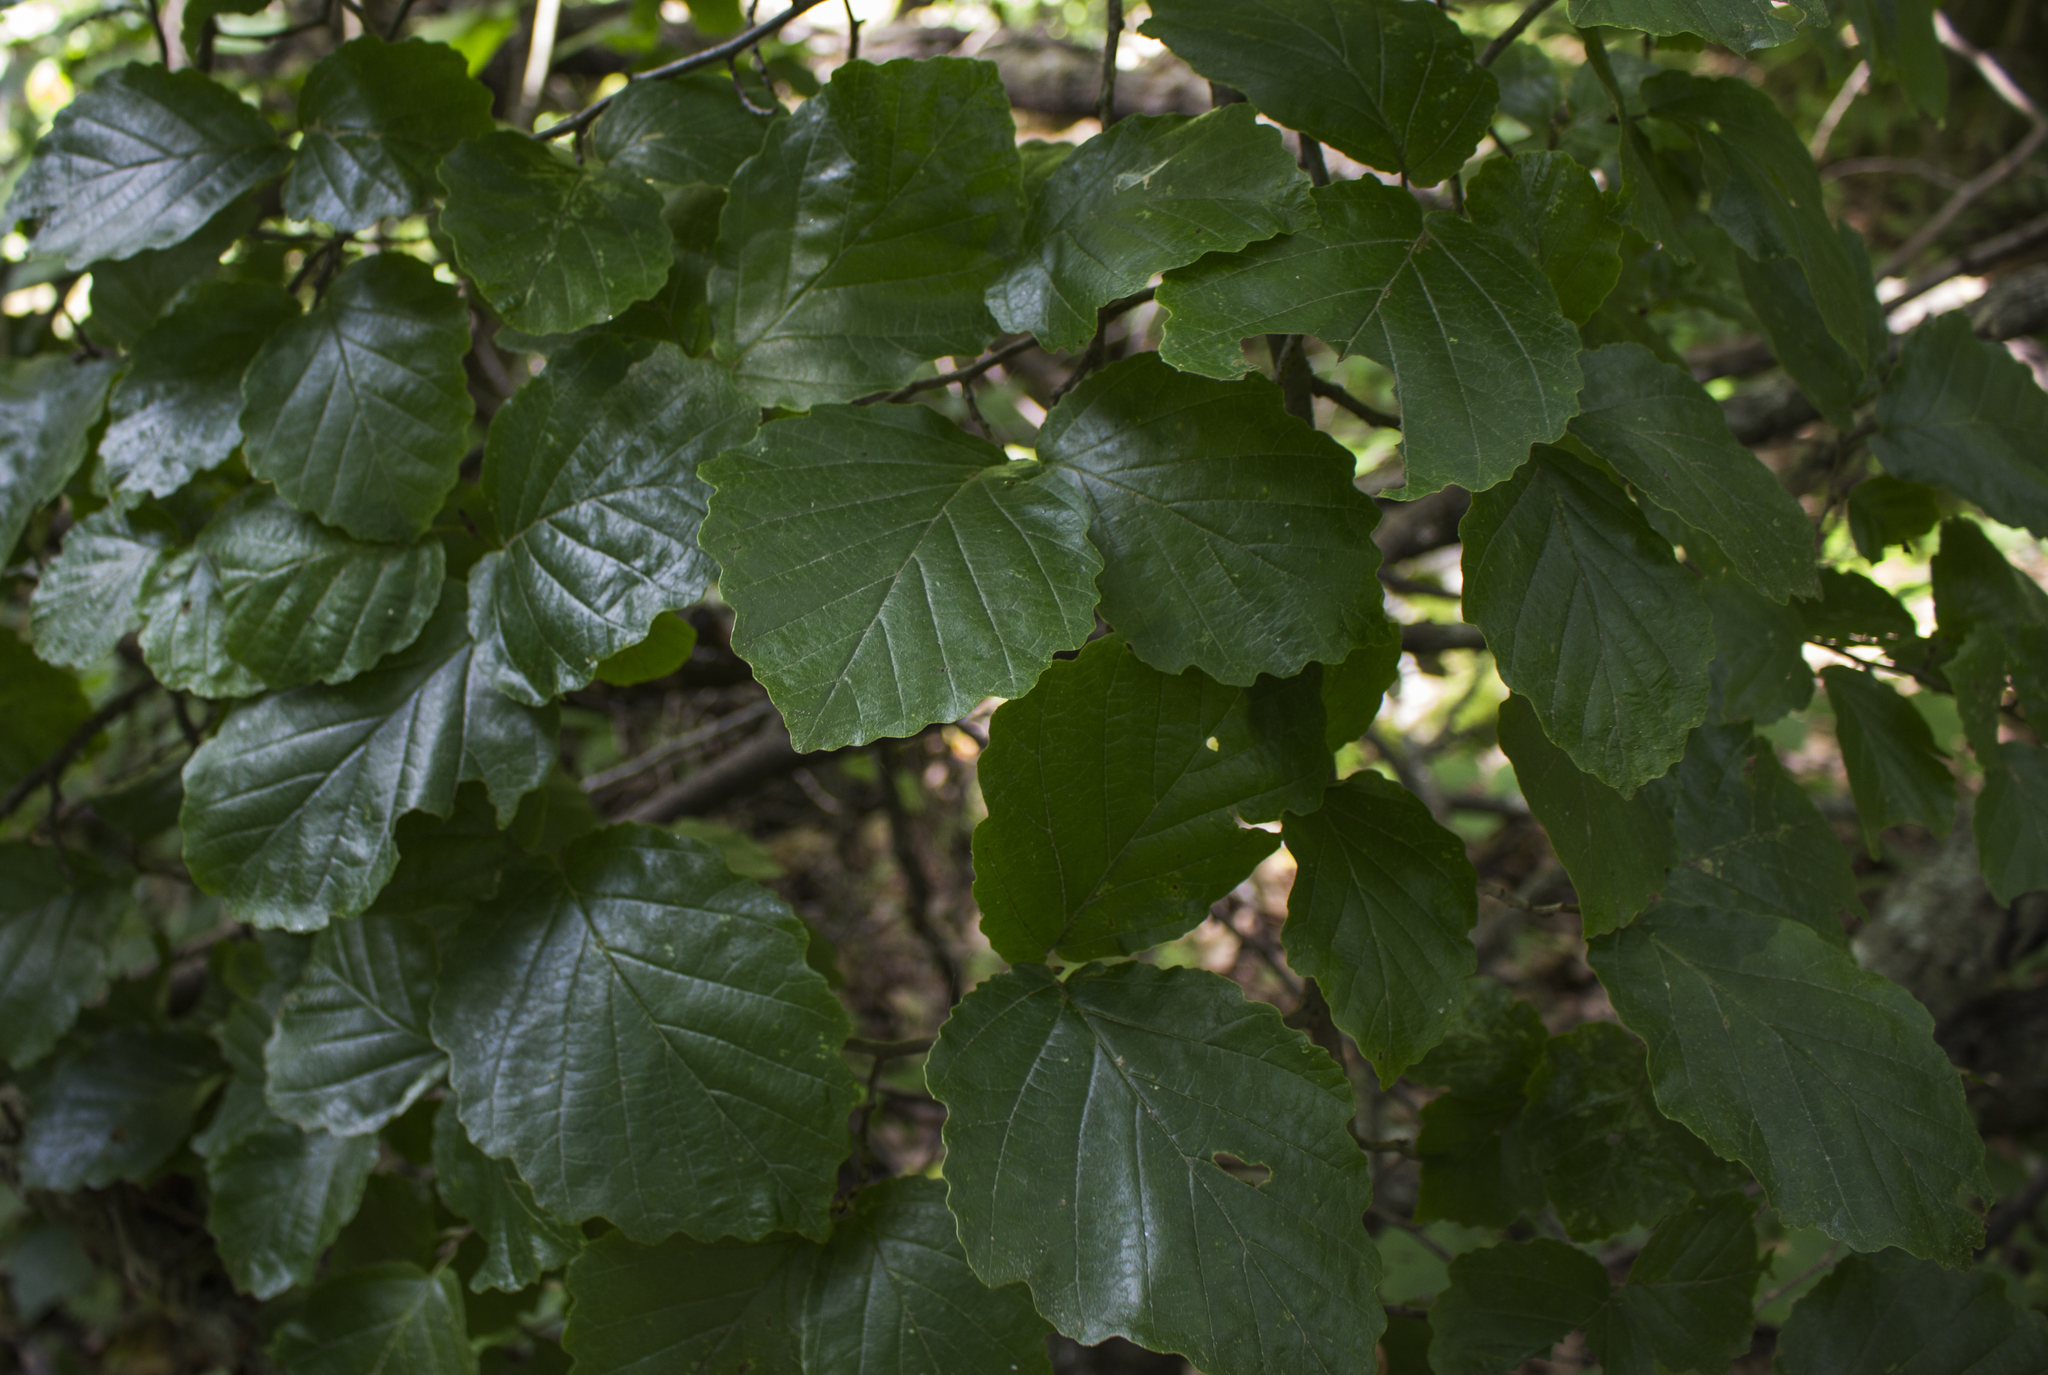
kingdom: Plantae
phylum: Tracheophyta
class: Magnoliopsida
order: Saxifragales
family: Hamamelidaceae
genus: Hamamelis
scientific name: Hamamelis virginiana
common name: Witch-hazel
